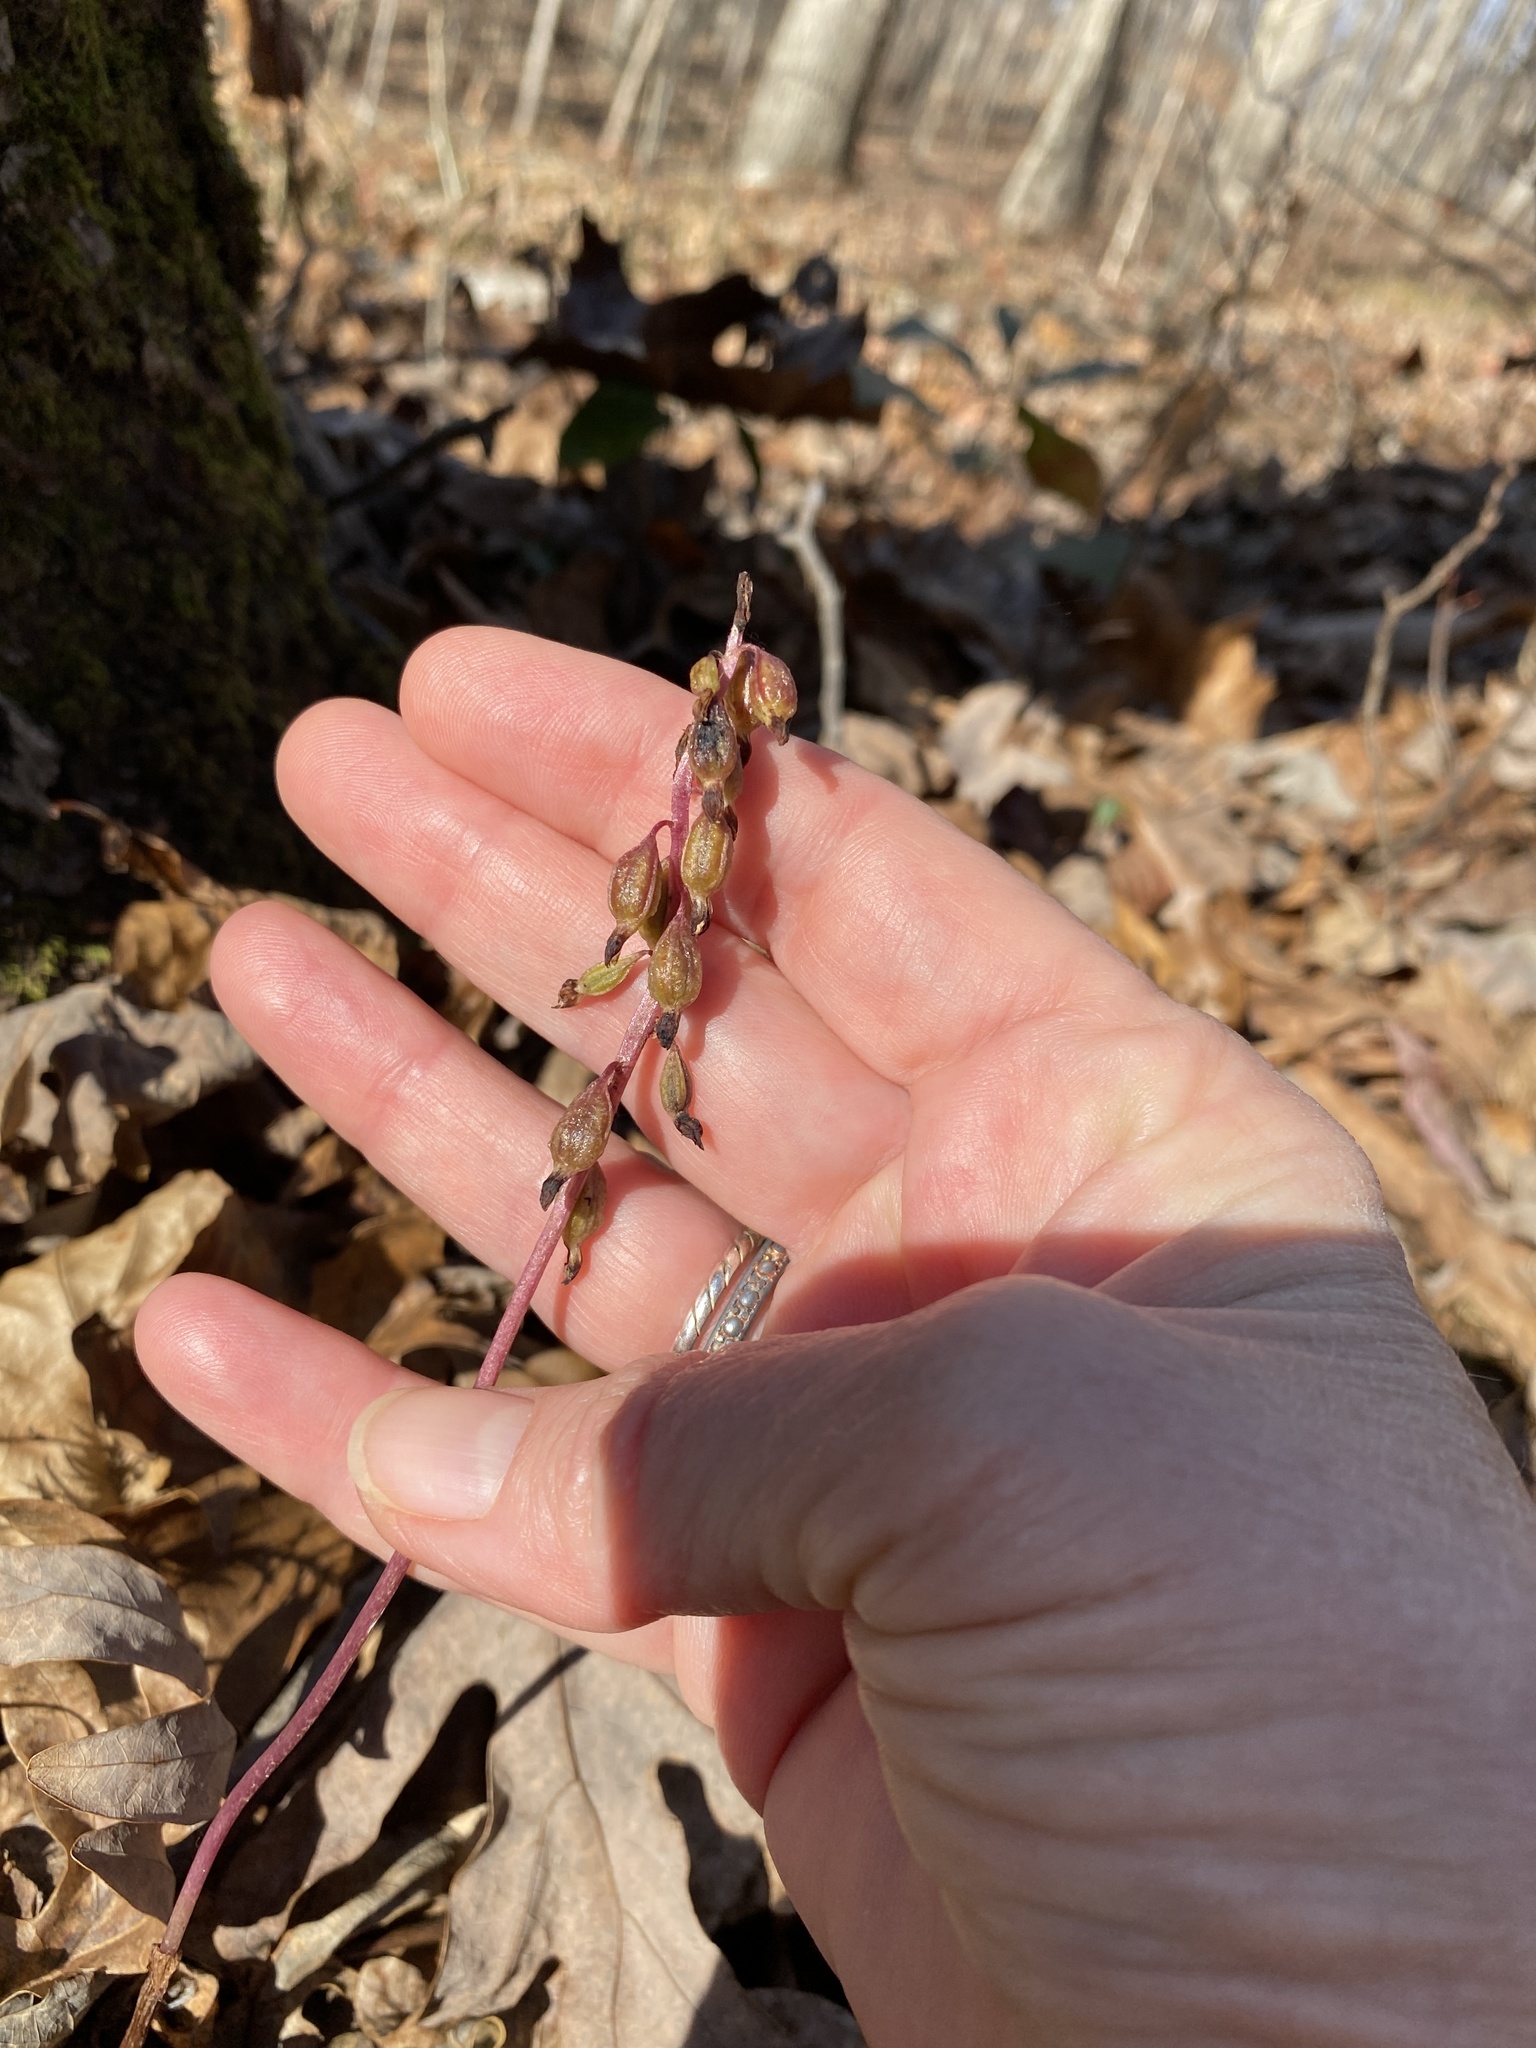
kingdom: Plantae
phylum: Tracheophyta
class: Liliopsida
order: Asparagales
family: Orchidaceae
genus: Corallorhiza
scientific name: Corallorhiza odontorhiza
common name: Autumn coralroot
